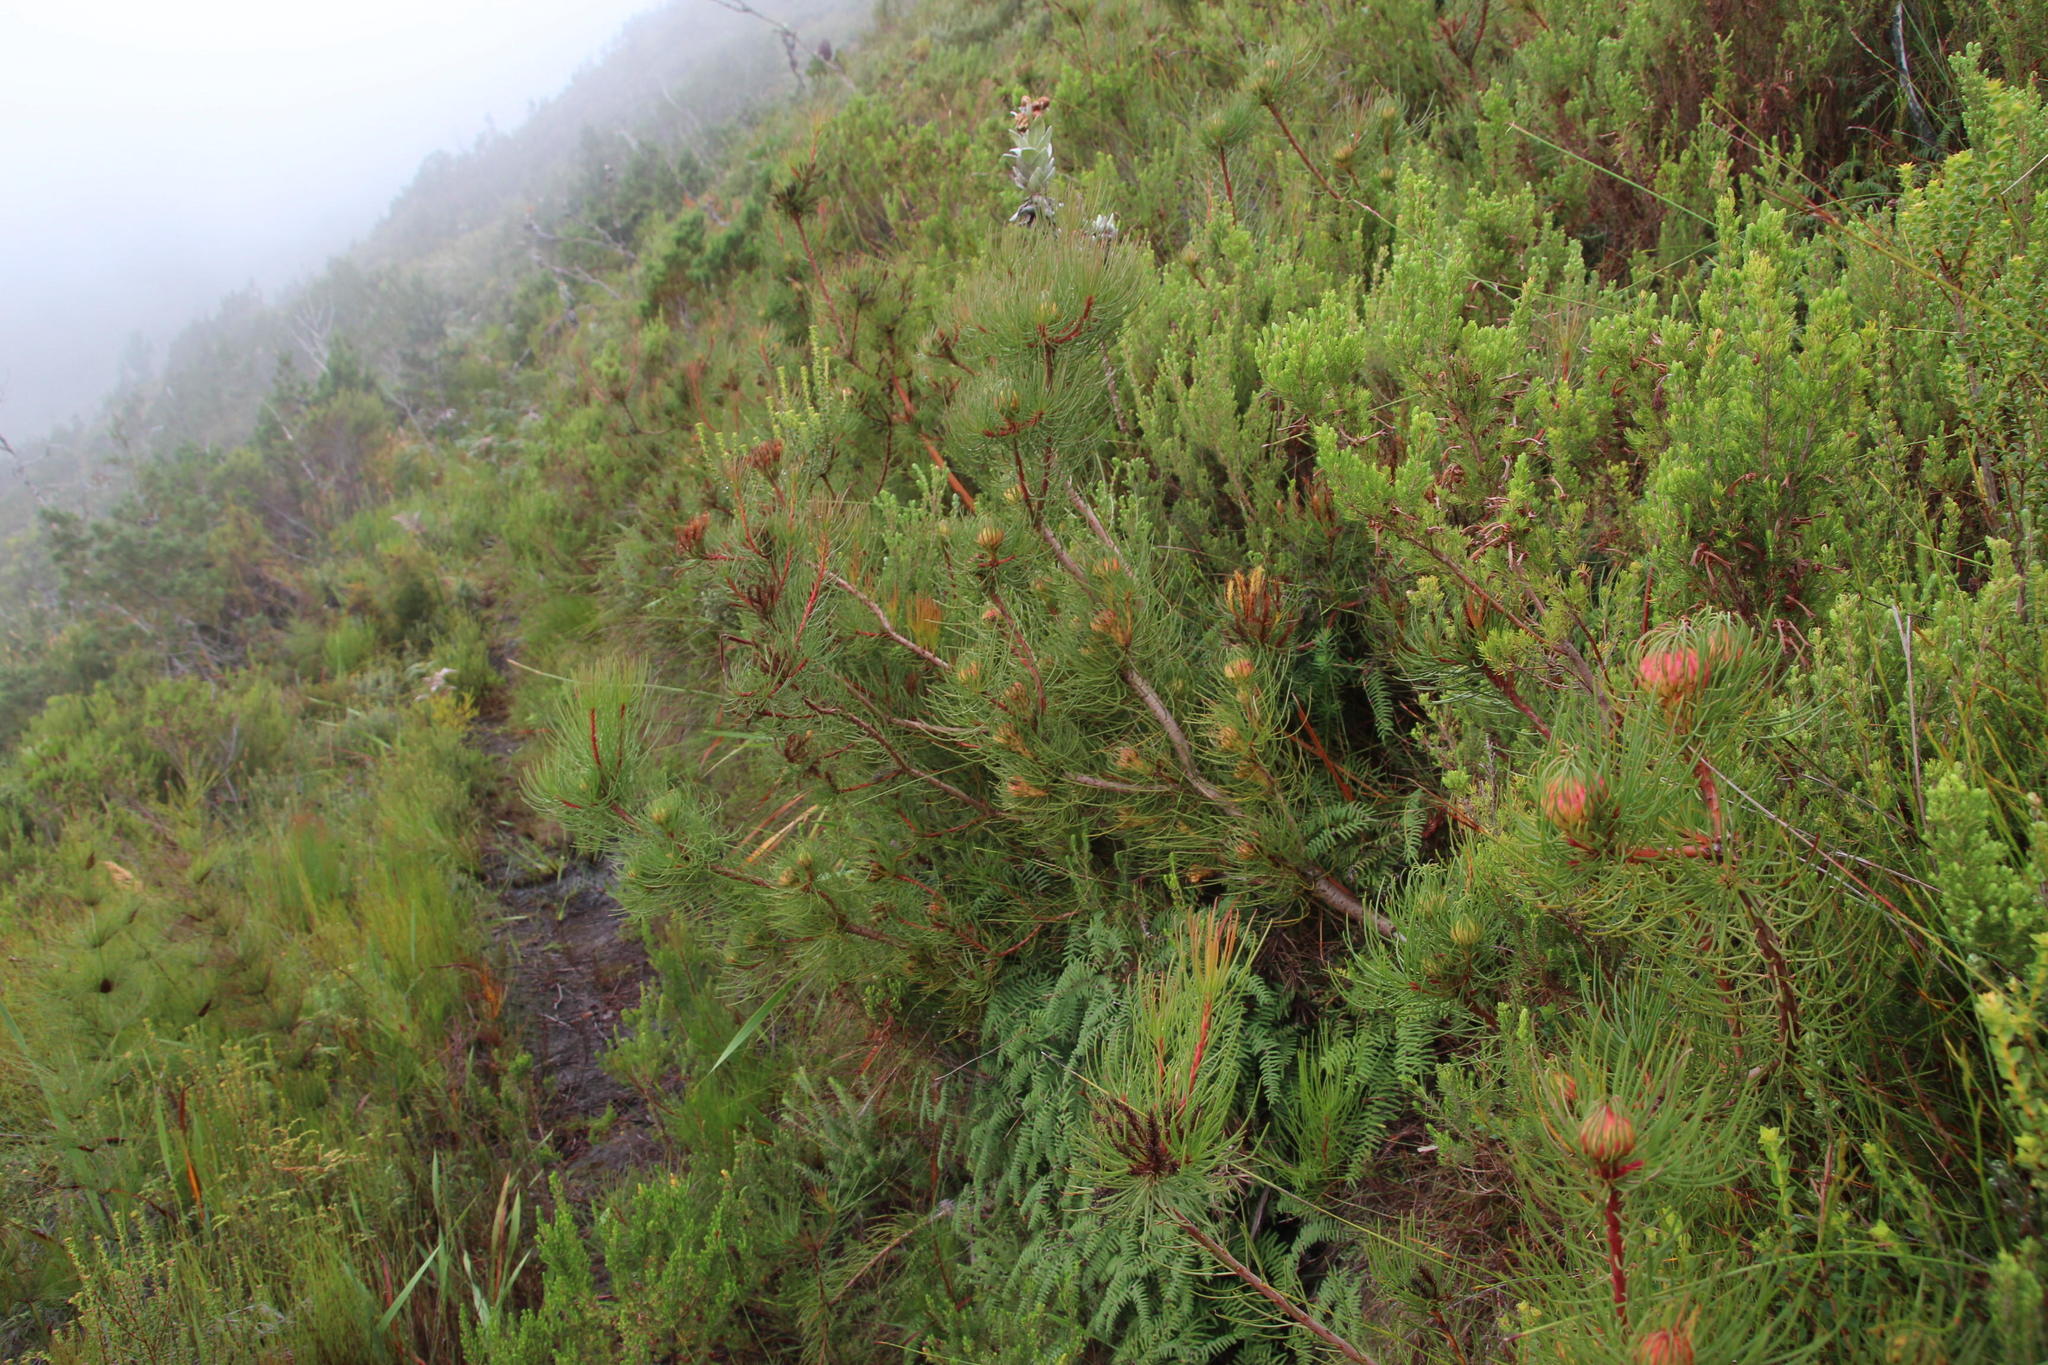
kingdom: Plantae
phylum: Tracheophyta
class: Magnoliopsida
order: Proteales
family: Proteaceae
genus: Aulax
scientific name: Aulax cancellata
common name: Channel-leaf featherbush
